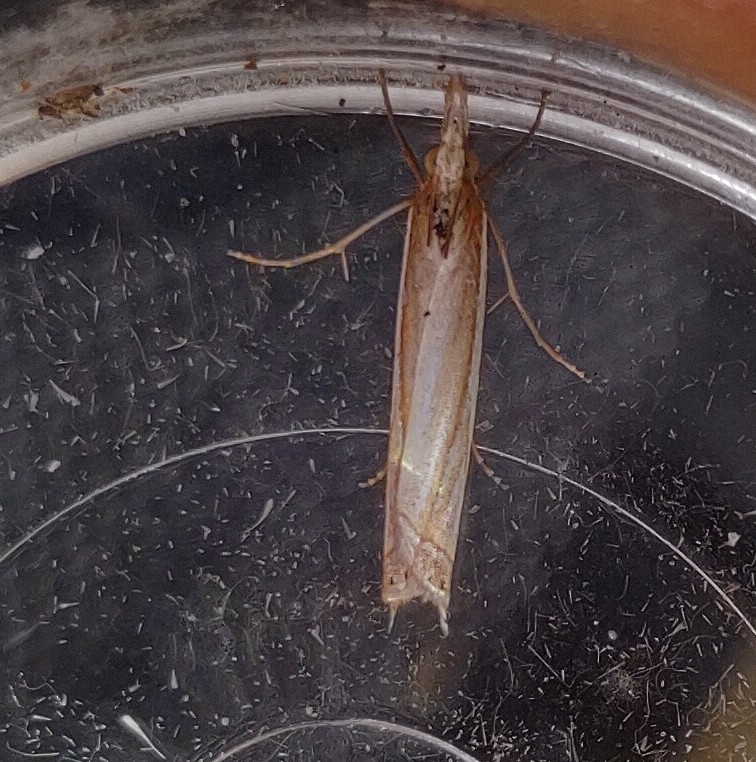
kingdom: Animalia
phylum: Arthropoda
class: Insecta
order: Lepidoptera
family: Crambidae
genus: Crambus
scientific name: Crambus pascuella
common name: Inlaid grass-veneer
